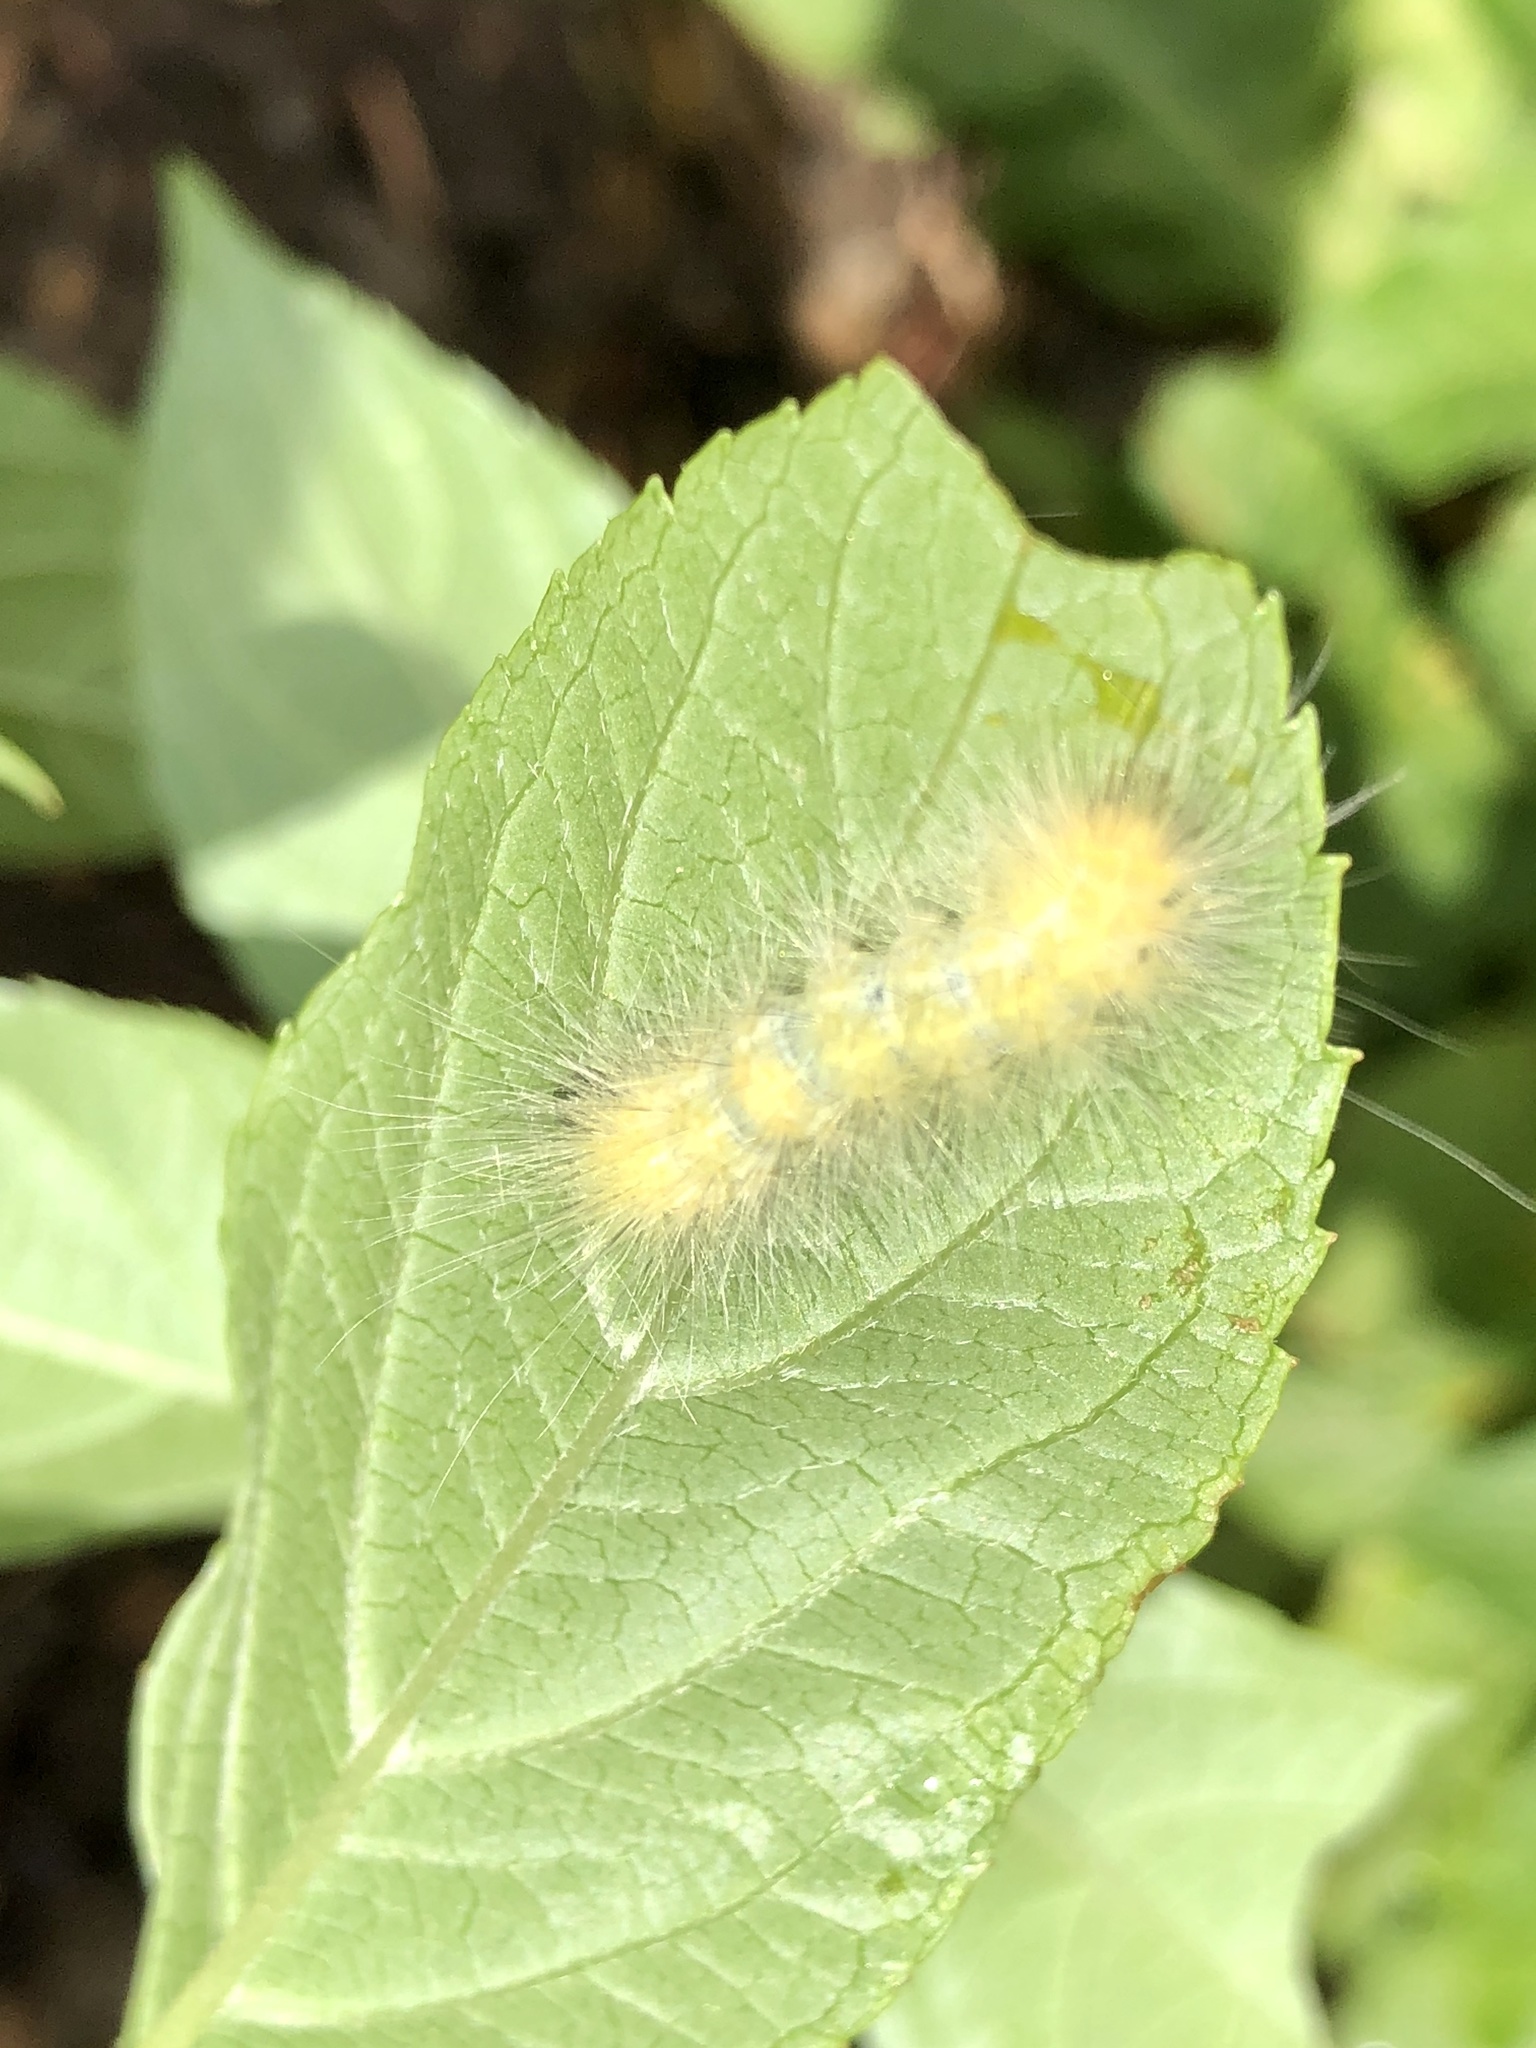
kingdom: Animalia
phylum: Arthropoda
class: Insecta
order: Lepidoptera
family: Erebidae
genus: Spilosoma
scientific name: Spilosoma virginica
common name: Virginia tiger moth
